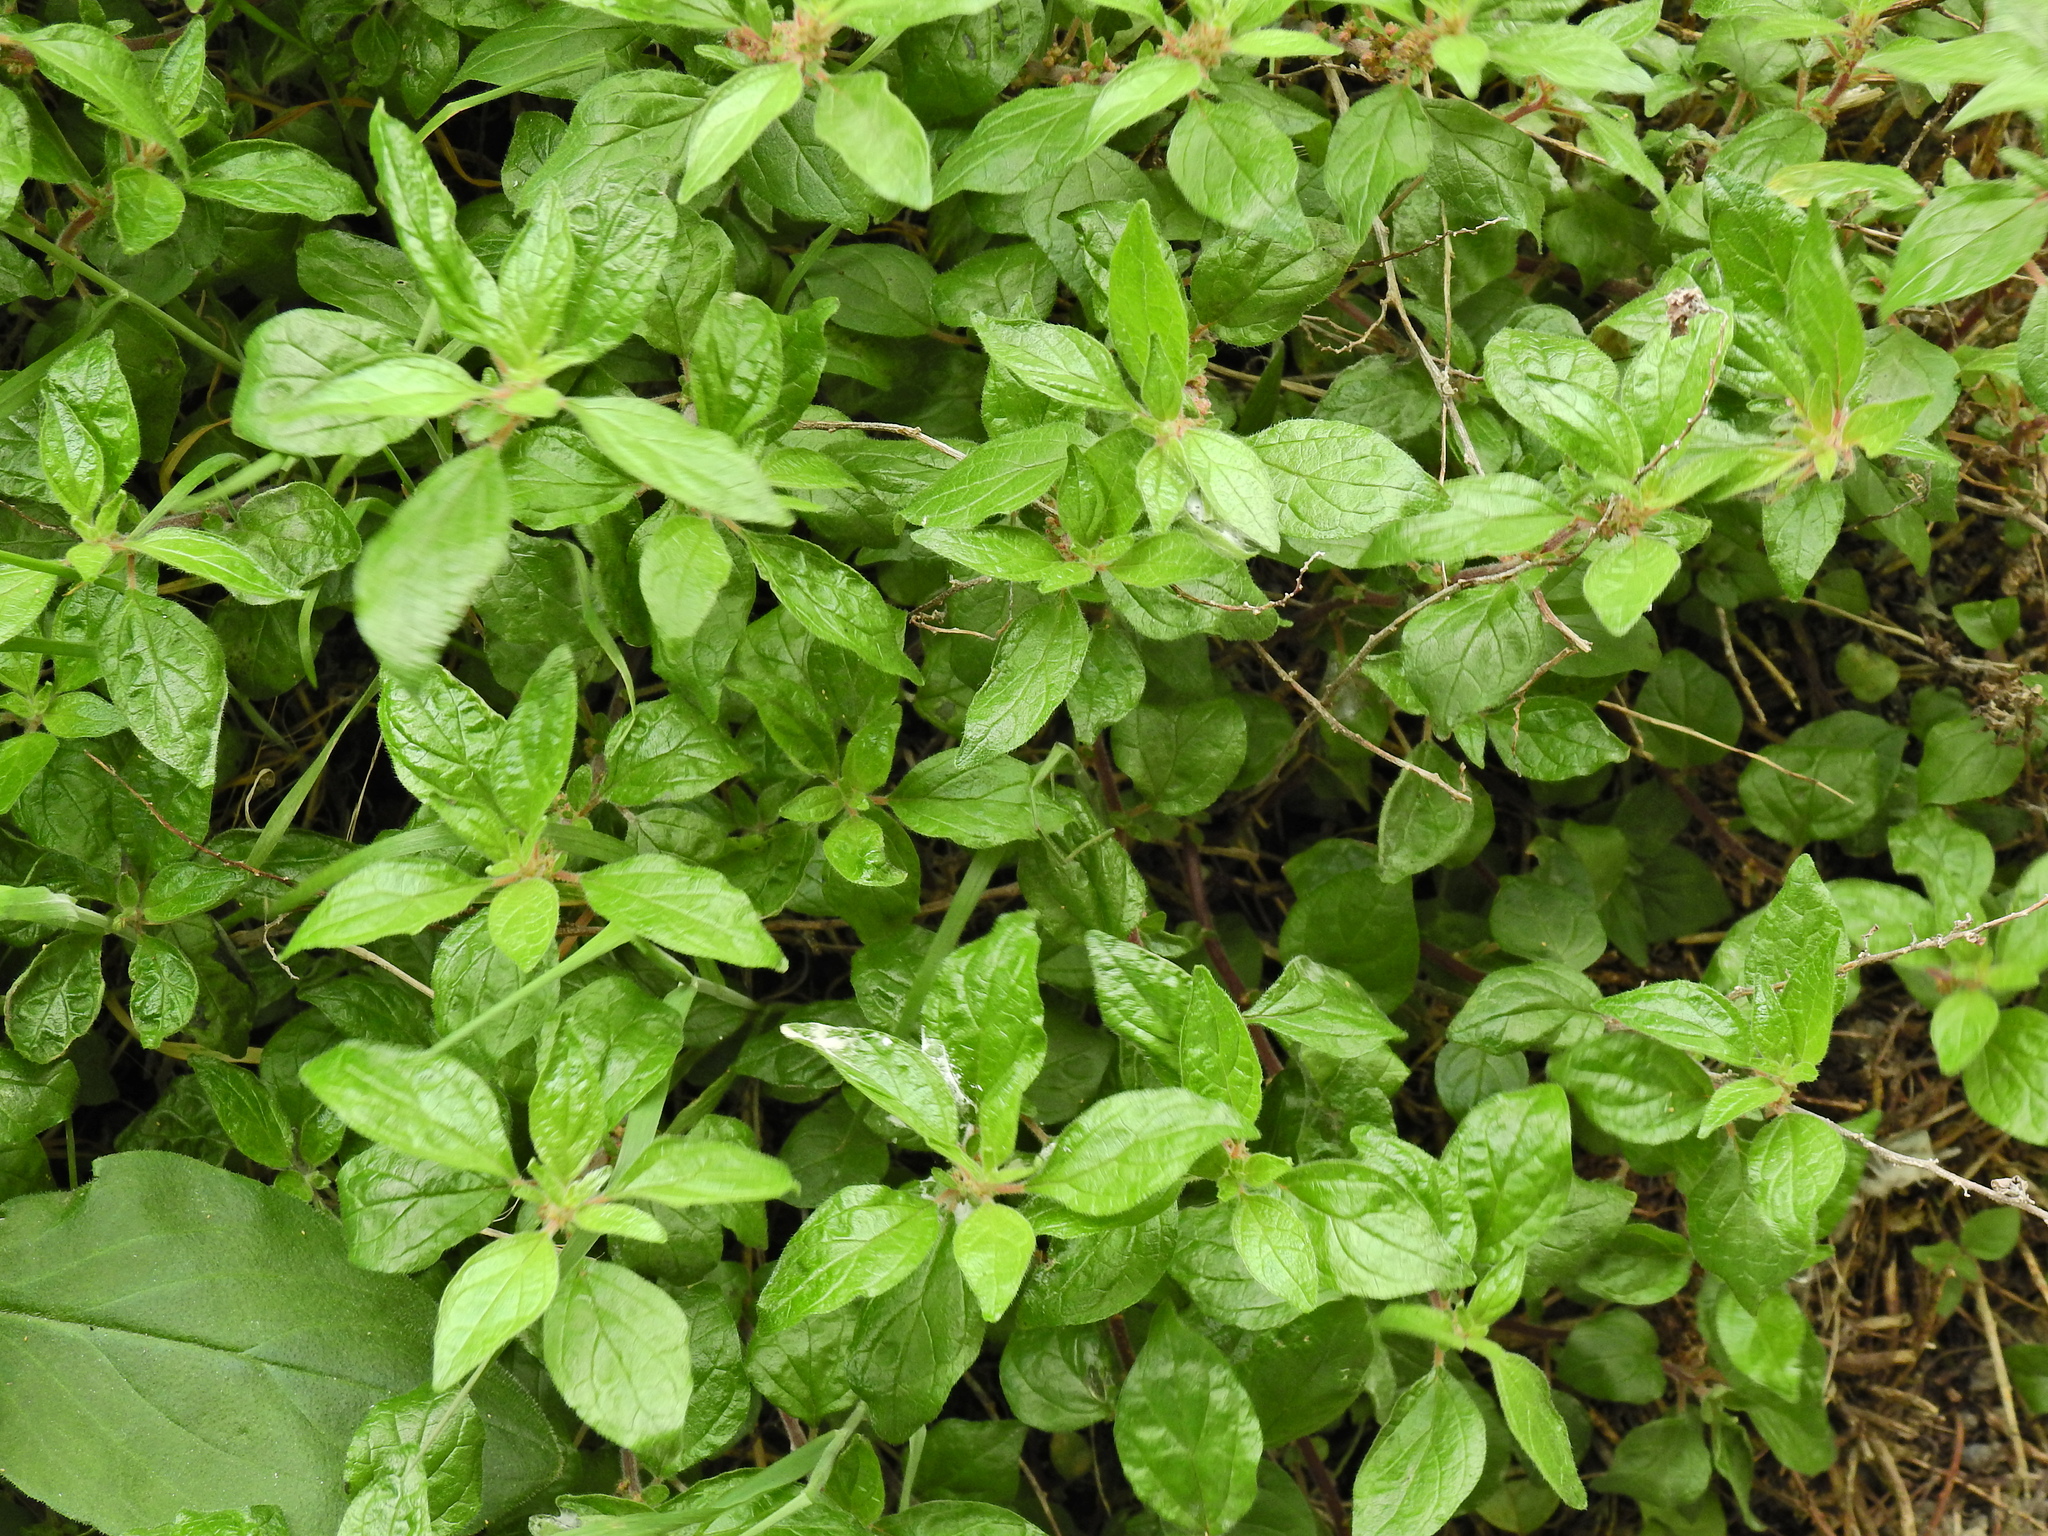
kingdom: Plantae
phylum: Tracheophyta
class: Magnoliopsida
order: Rosales
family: Urticaceae
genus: Parietaria
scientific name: Parietaria judaica
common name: Pellitory-of-the-wall
